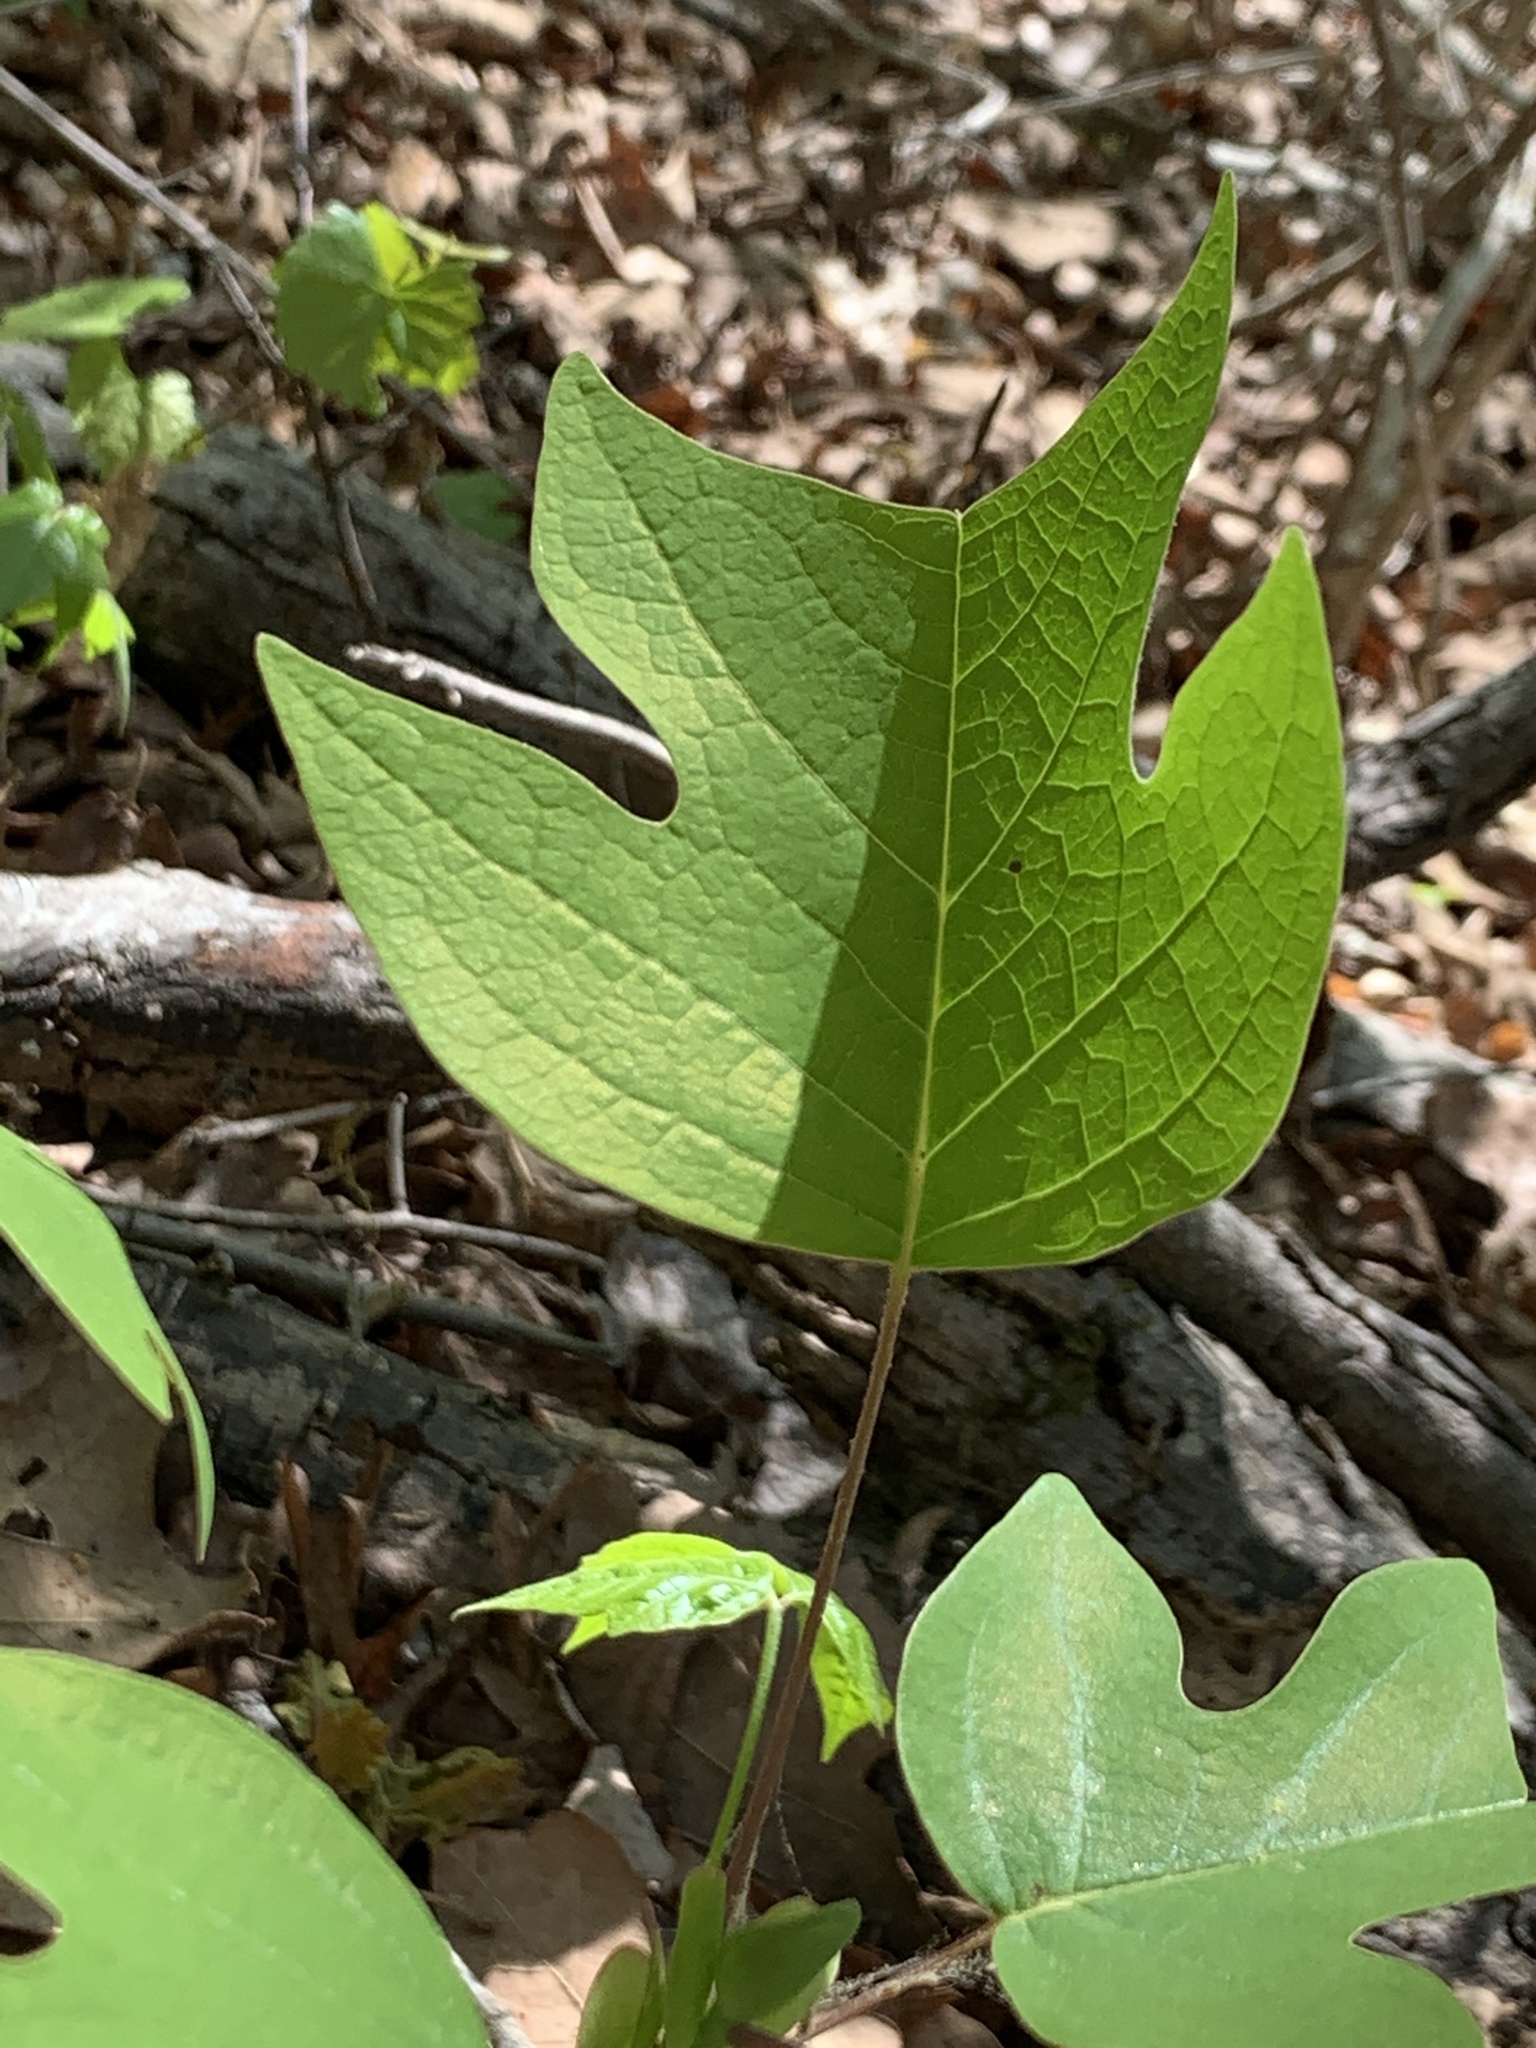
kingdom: Plantae
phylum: Tracheophyta
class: Magnoliopsida
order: Magnoliales
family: Magnoliaceae
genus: Liriodendron
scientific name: Liriodendron tulipifera
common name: Tulip tree
